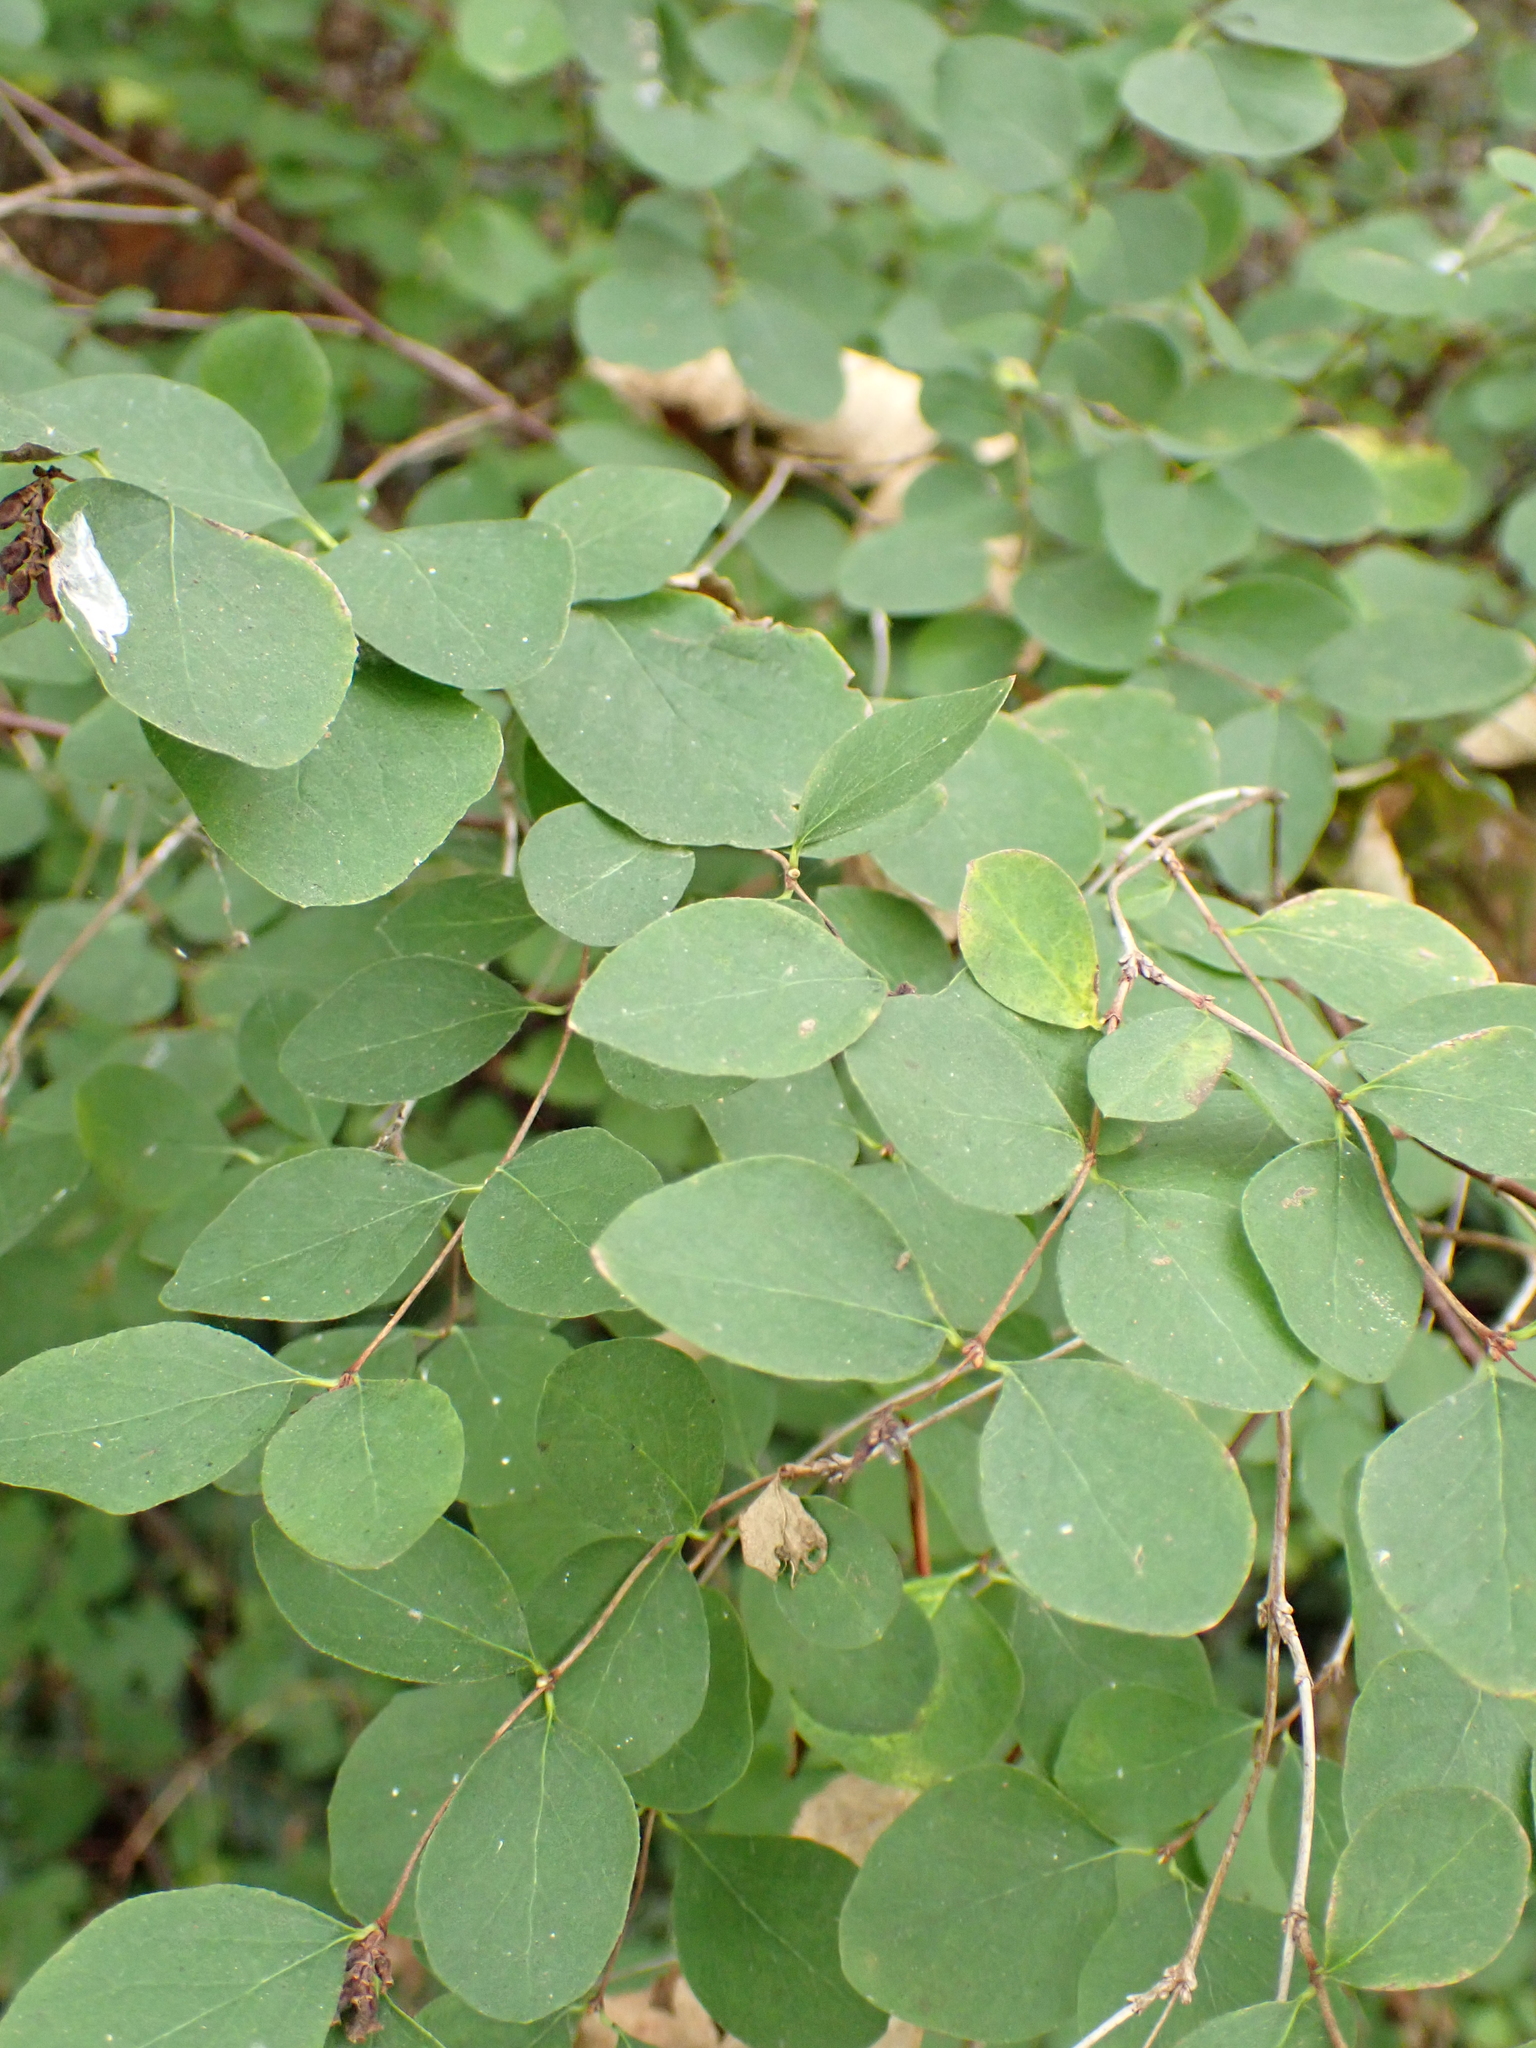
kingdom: Plantae
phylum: Tracheophyta
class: Magnoliopsida
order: Dipsacales
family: Caprifoliaceae
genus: Symphoricarpos
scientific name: Symphoricarpos albus
